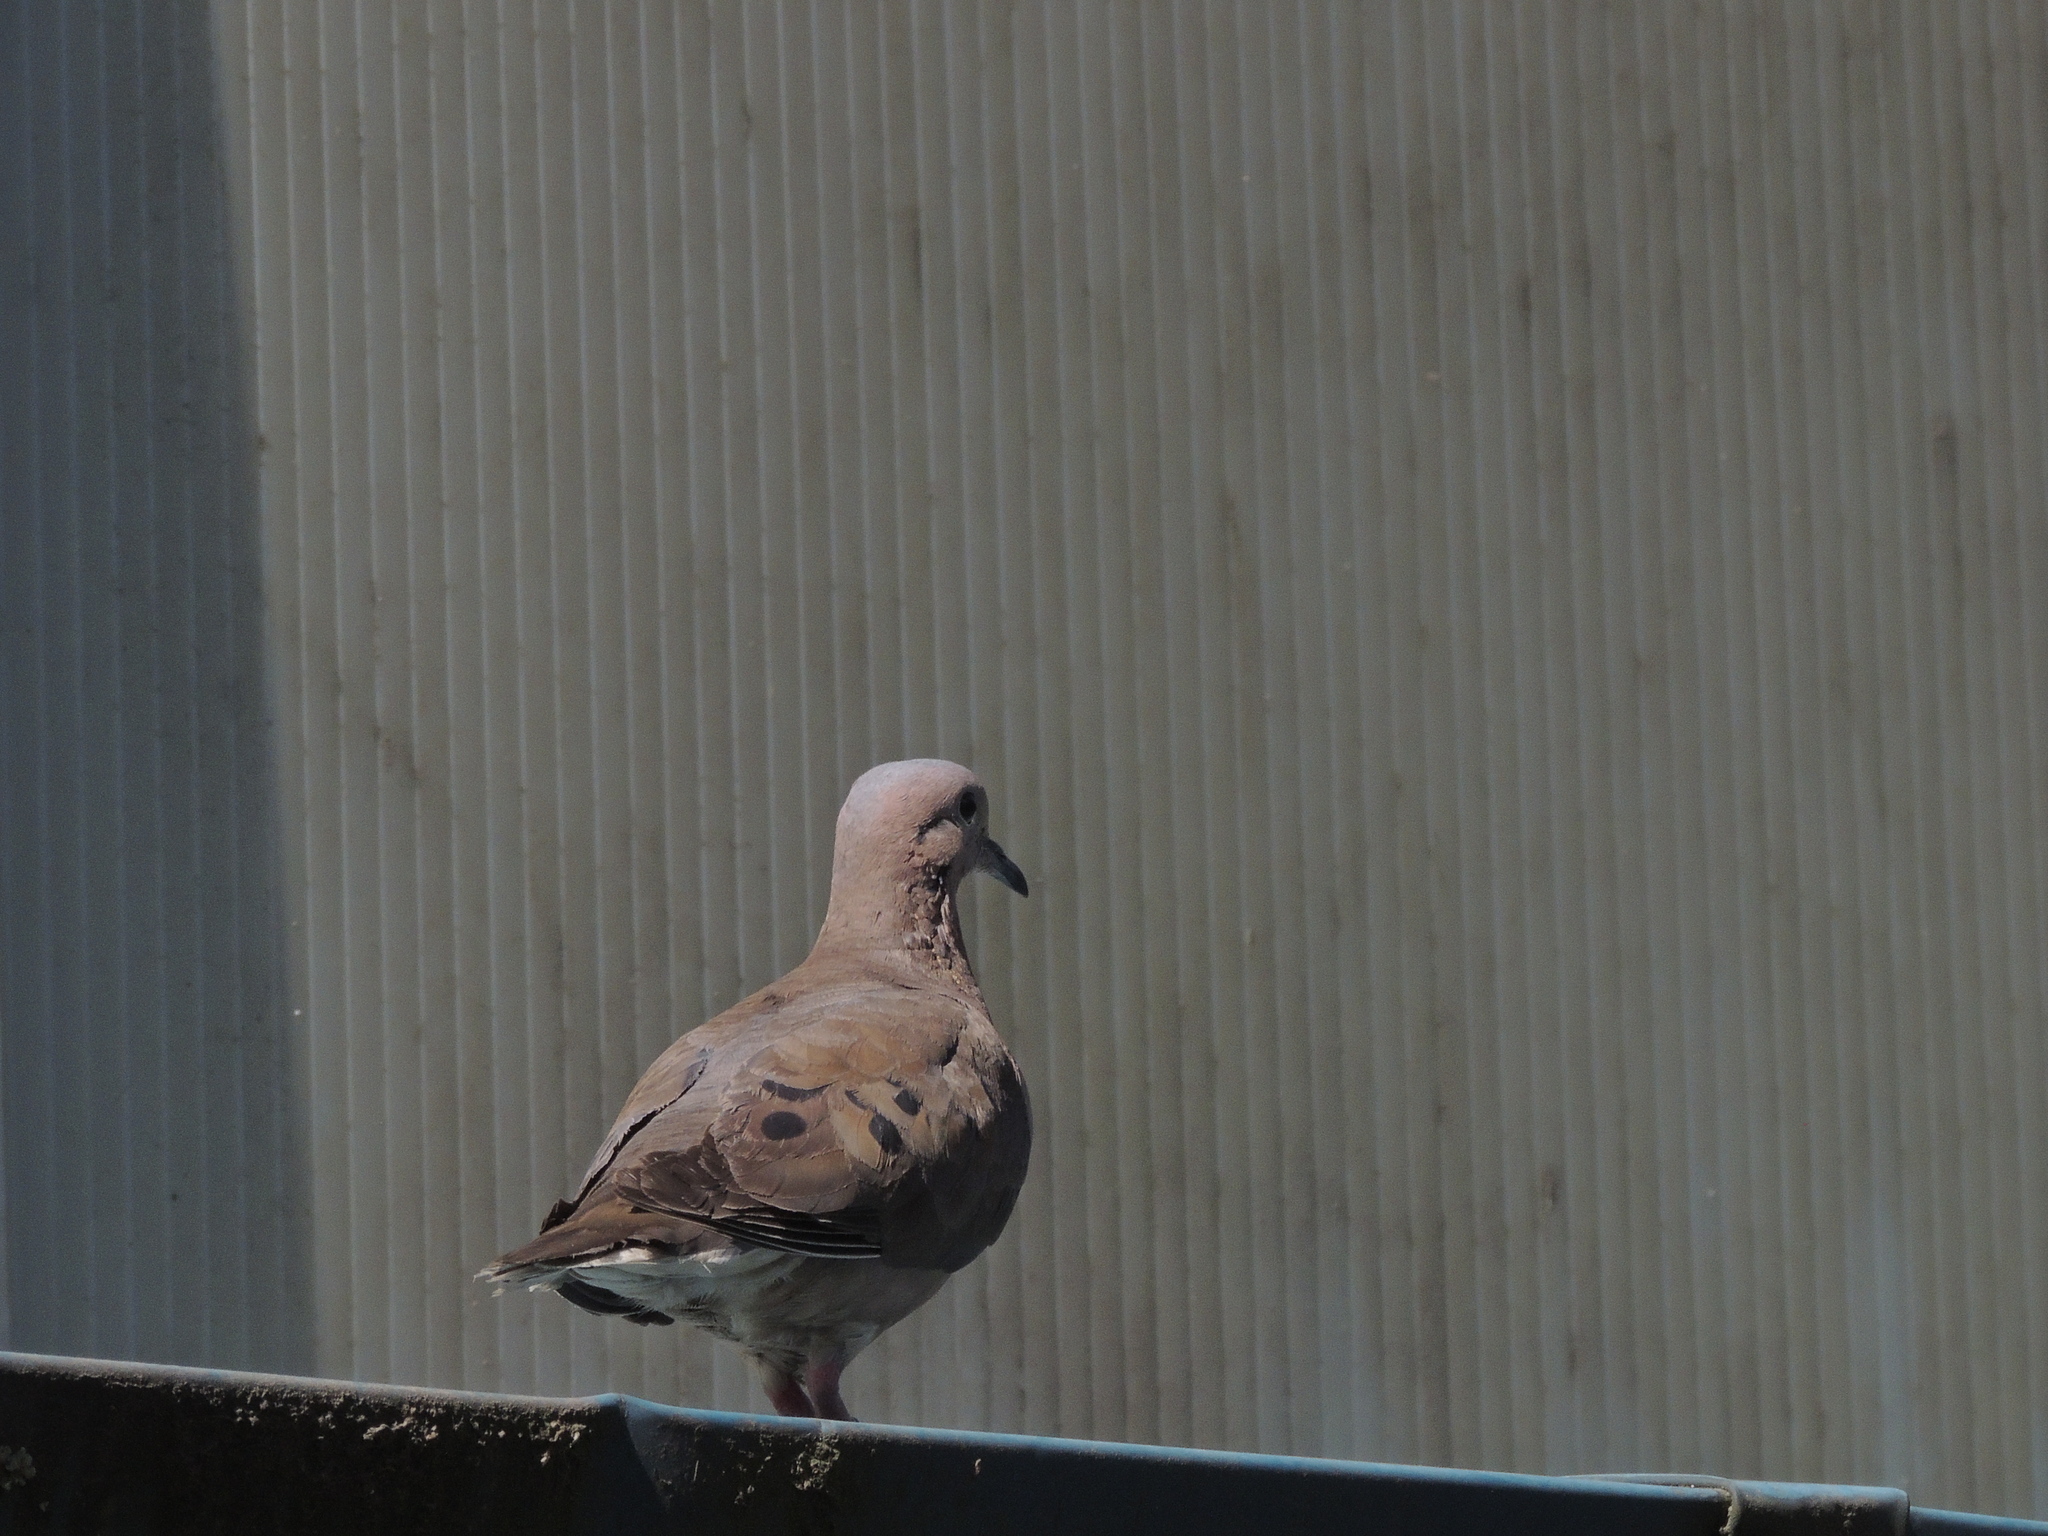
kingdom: Animalia
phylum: Chordata
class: Aves
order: Columbiformes
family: Columbidae
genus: Zenaida
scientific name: Zenaida auriculata
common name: Eared dove
